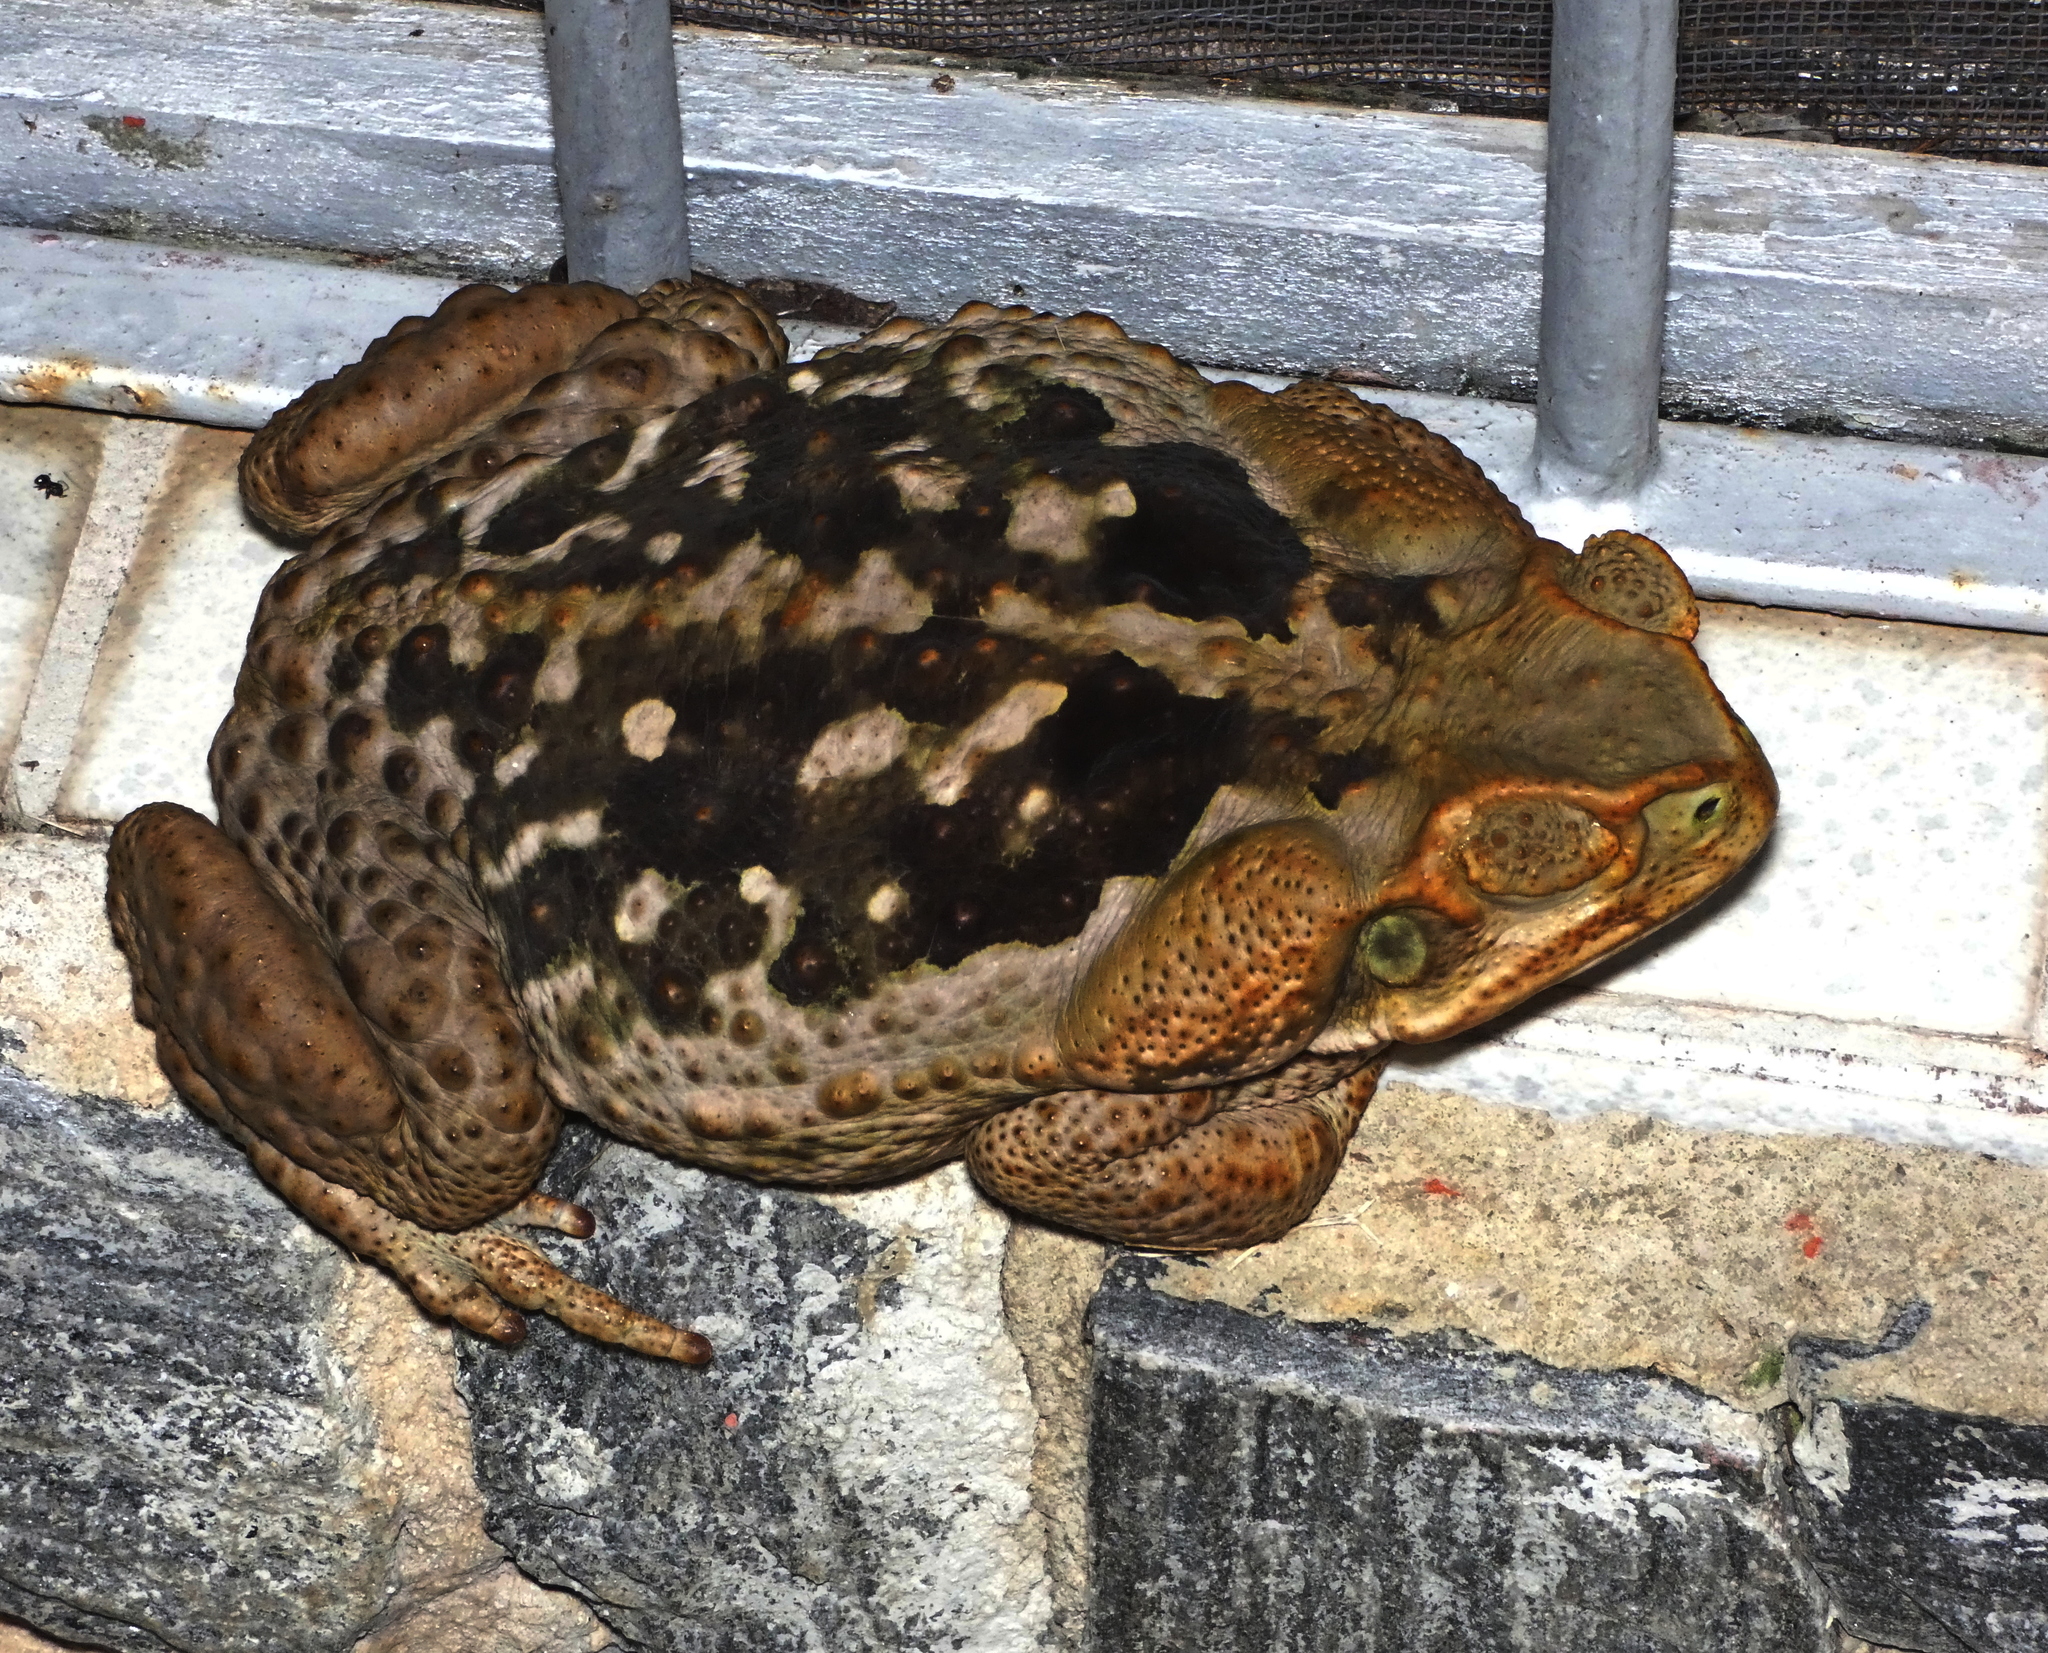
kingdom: Animalia
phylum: Chordata
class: Amphibia
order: Anura
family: Bufonidae
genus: Rhinella
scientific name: Rhinella diptycha
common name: Cope's toad
